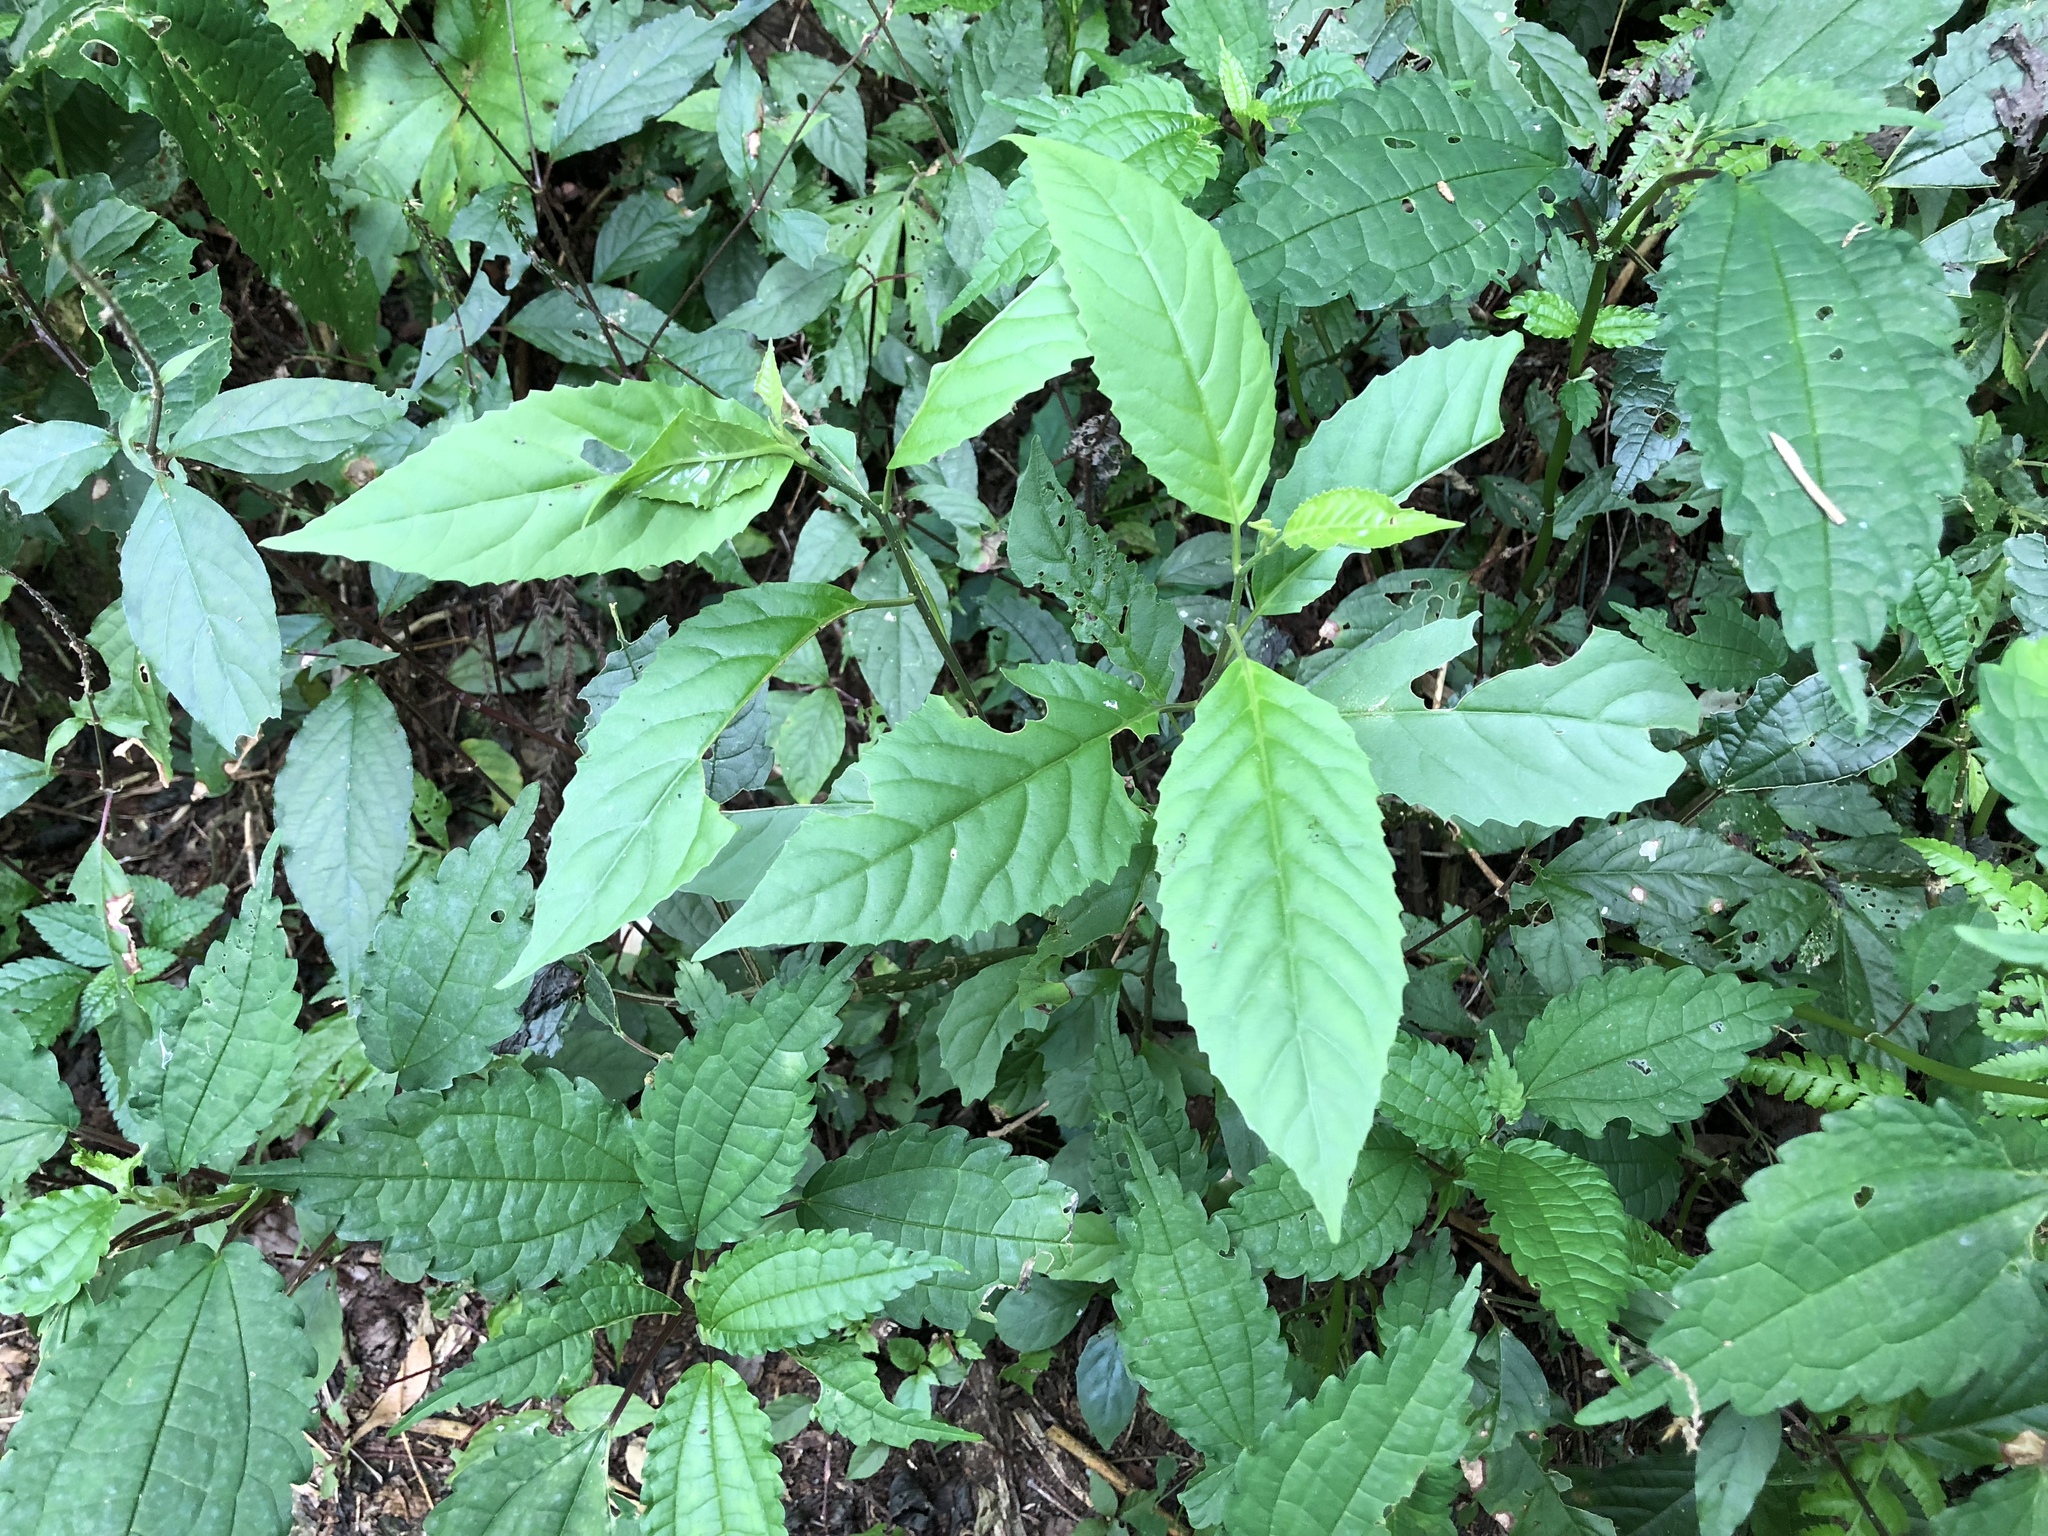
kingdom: Plantae
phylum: Tracheophyta
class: Magnoliopsida
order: Ericales
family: Primulaceae
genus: Maesa
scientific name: Maesa perlaria
